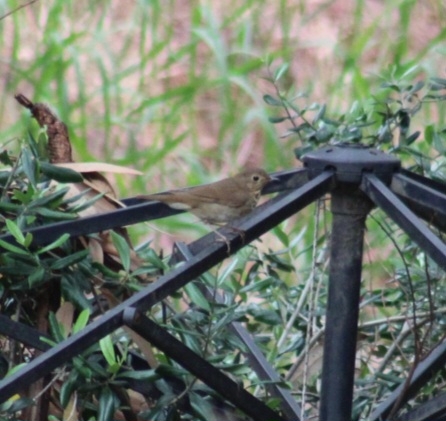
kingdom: Animalia
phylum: Chordata
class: Aves
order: Passeriformes
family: Turdidae
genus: Catharus
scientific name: Catharus ustulatus
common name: Swainson's thrush
